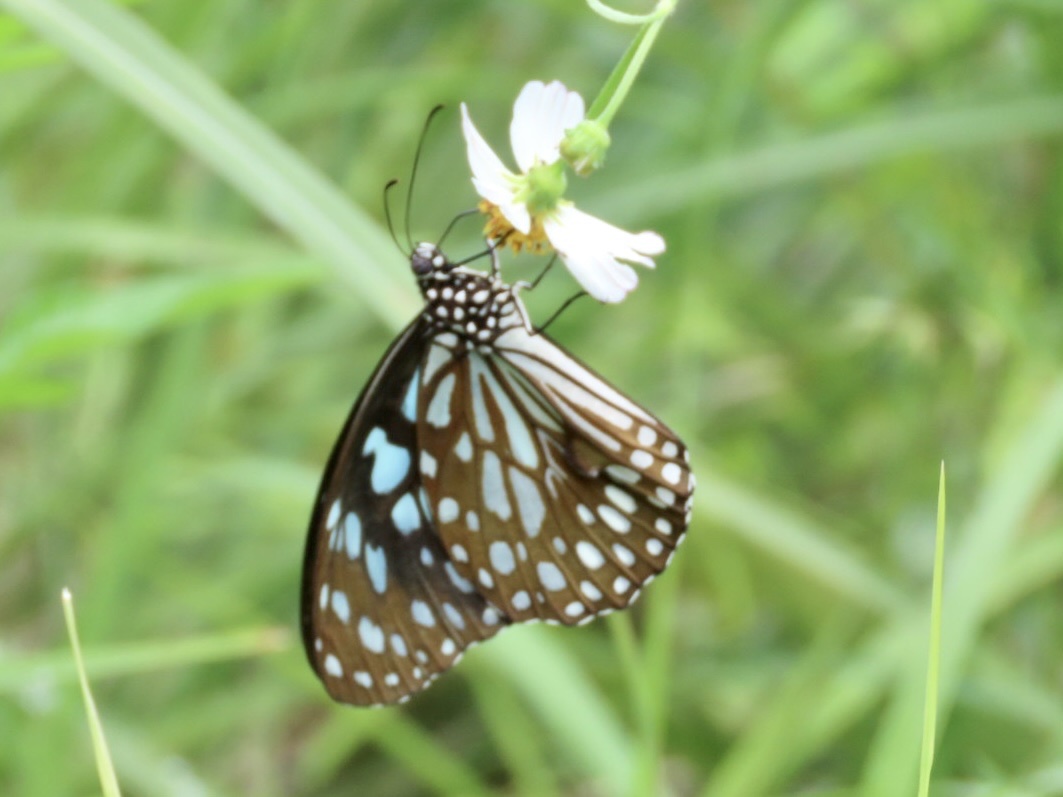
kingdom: Animalia
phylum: Arthropoda
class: Insecta
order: Lepidoptera
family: Nymphalidae
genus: Tirumala
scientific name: Tirumala limniace
